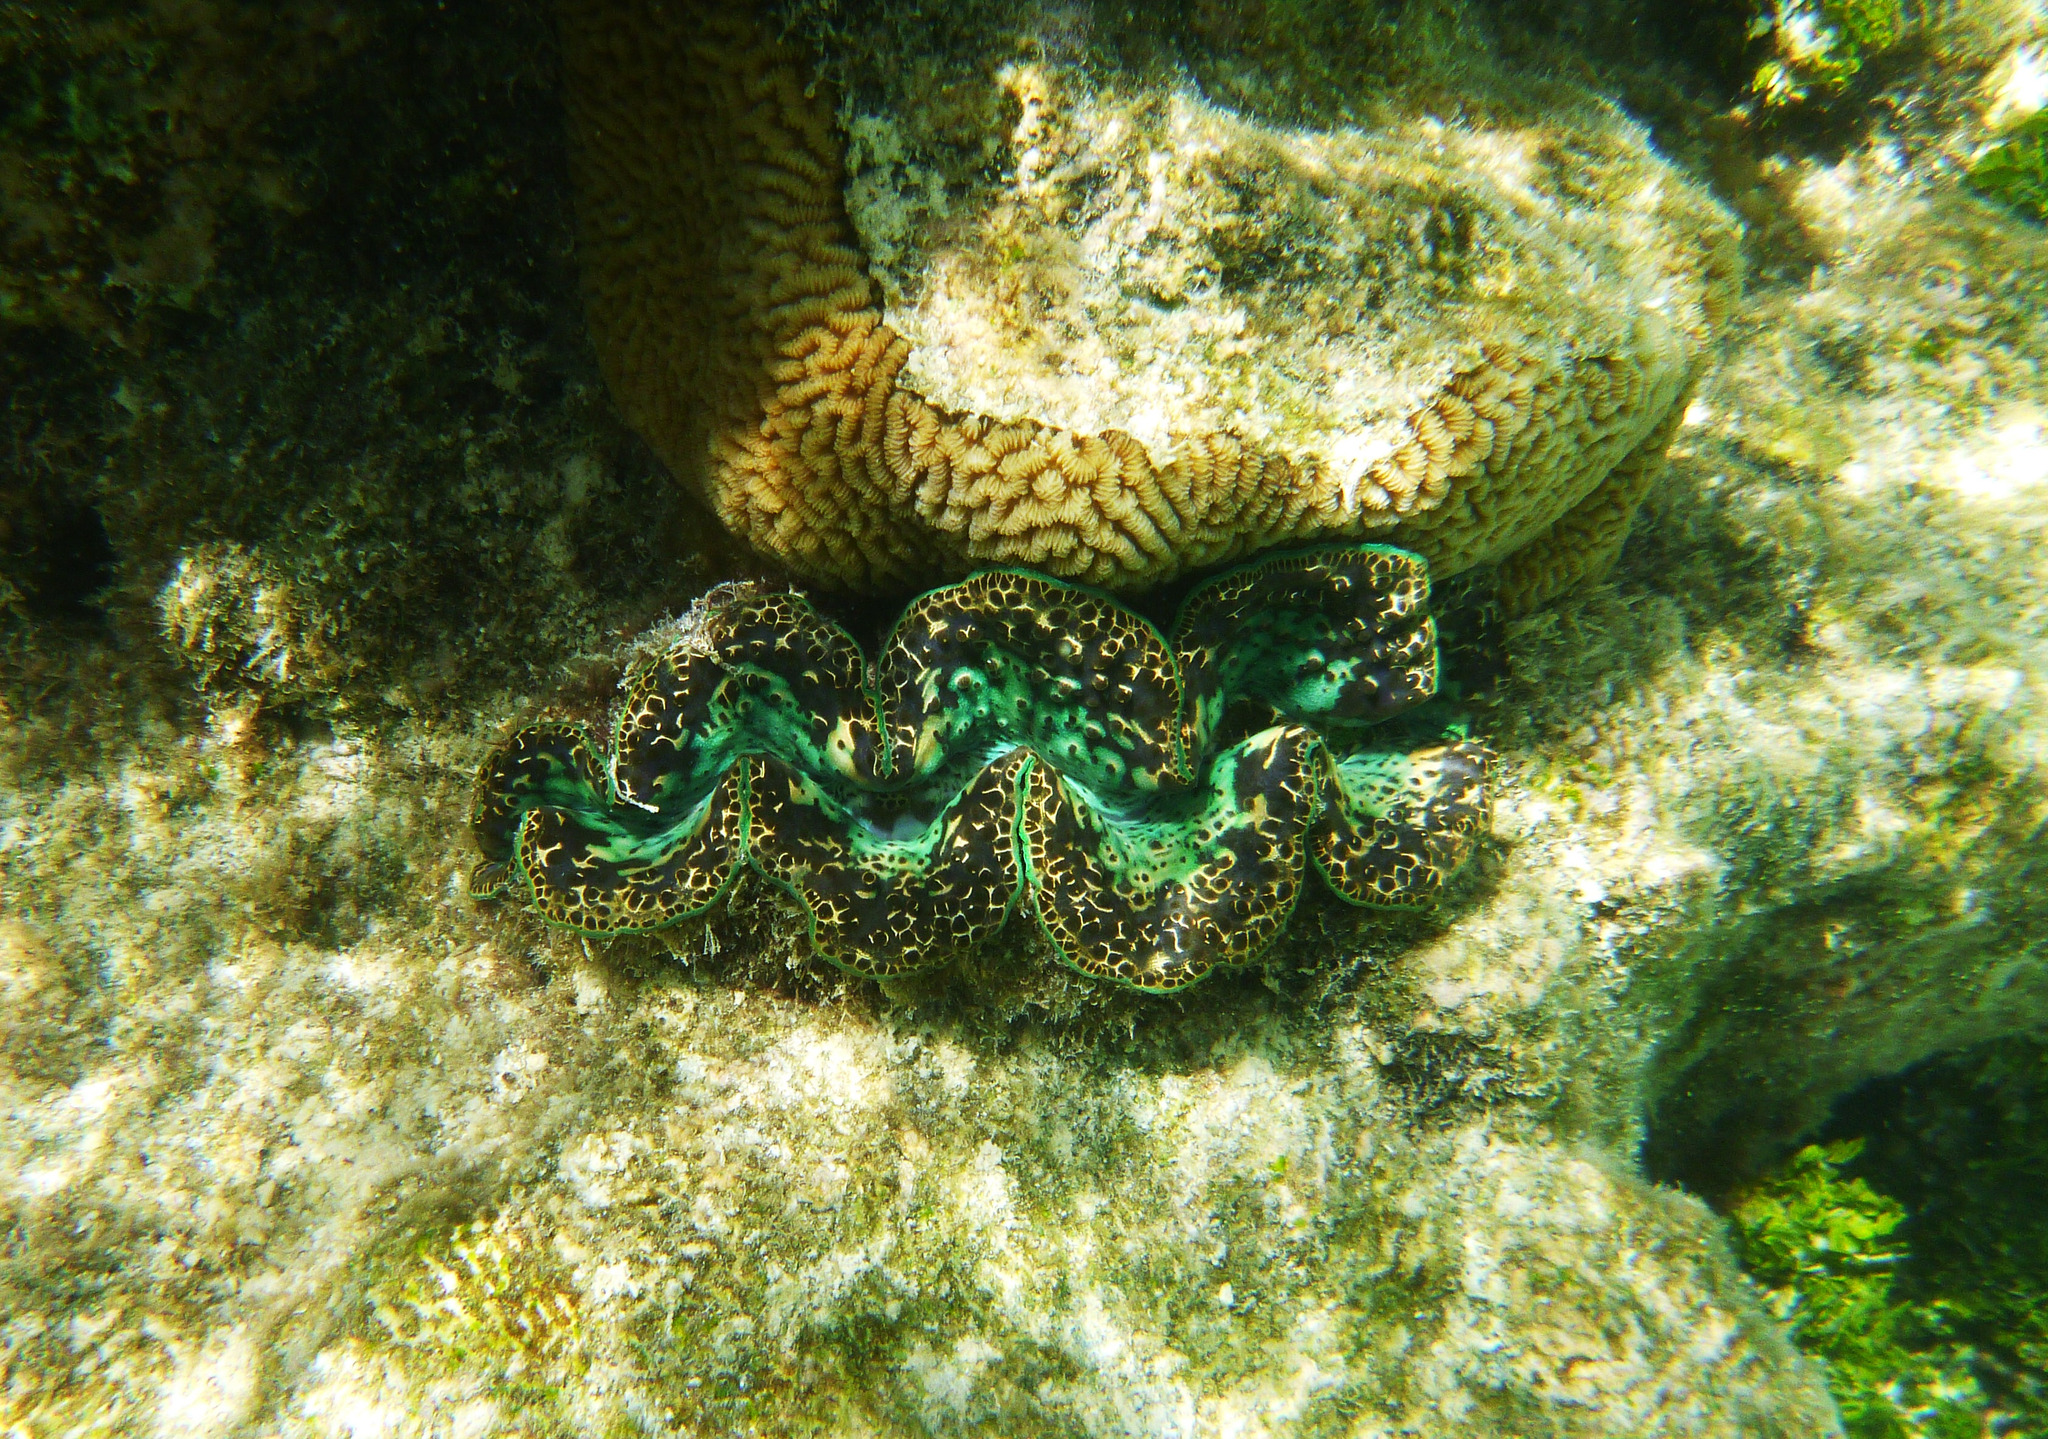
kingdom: Animalia
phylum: Mollusca
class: Bivalvia
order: Cardiida
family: Cardiidae
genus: Tridacna
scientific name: Tridacna maxima
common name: Small giant clam
